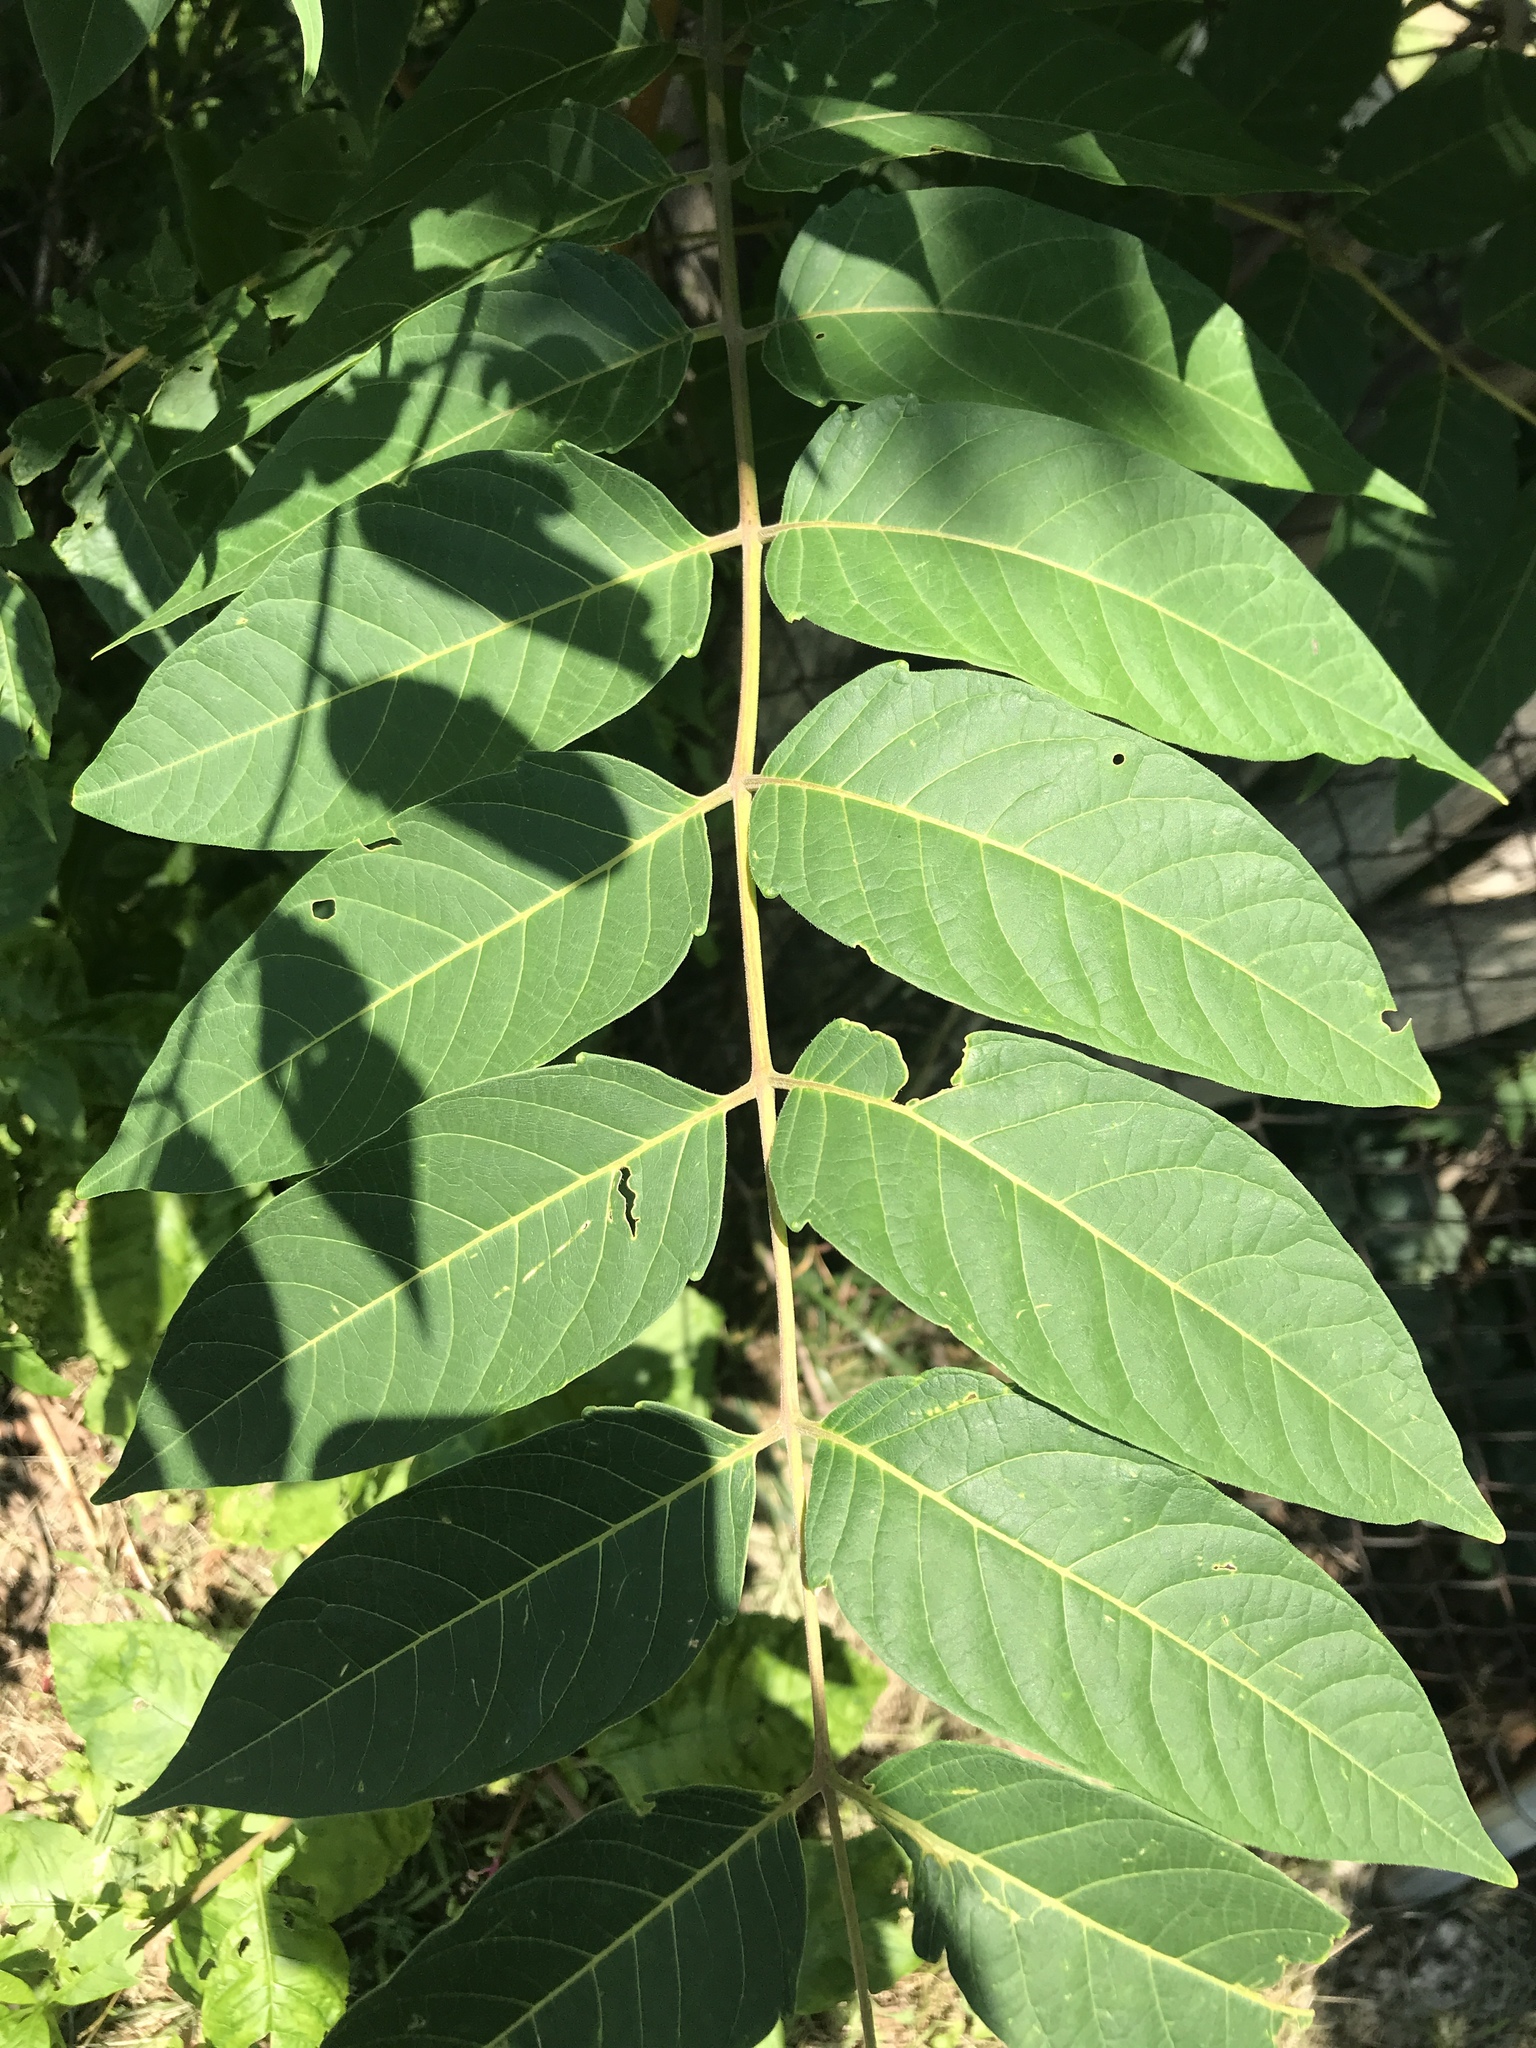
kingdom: Plantae
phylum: Tracheophyta
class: Magnoliopsida
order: Sapindales
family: Simaroubaceae
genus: Ailanthus
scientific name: Ailanthus altissima
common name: Tree-of-heaven
